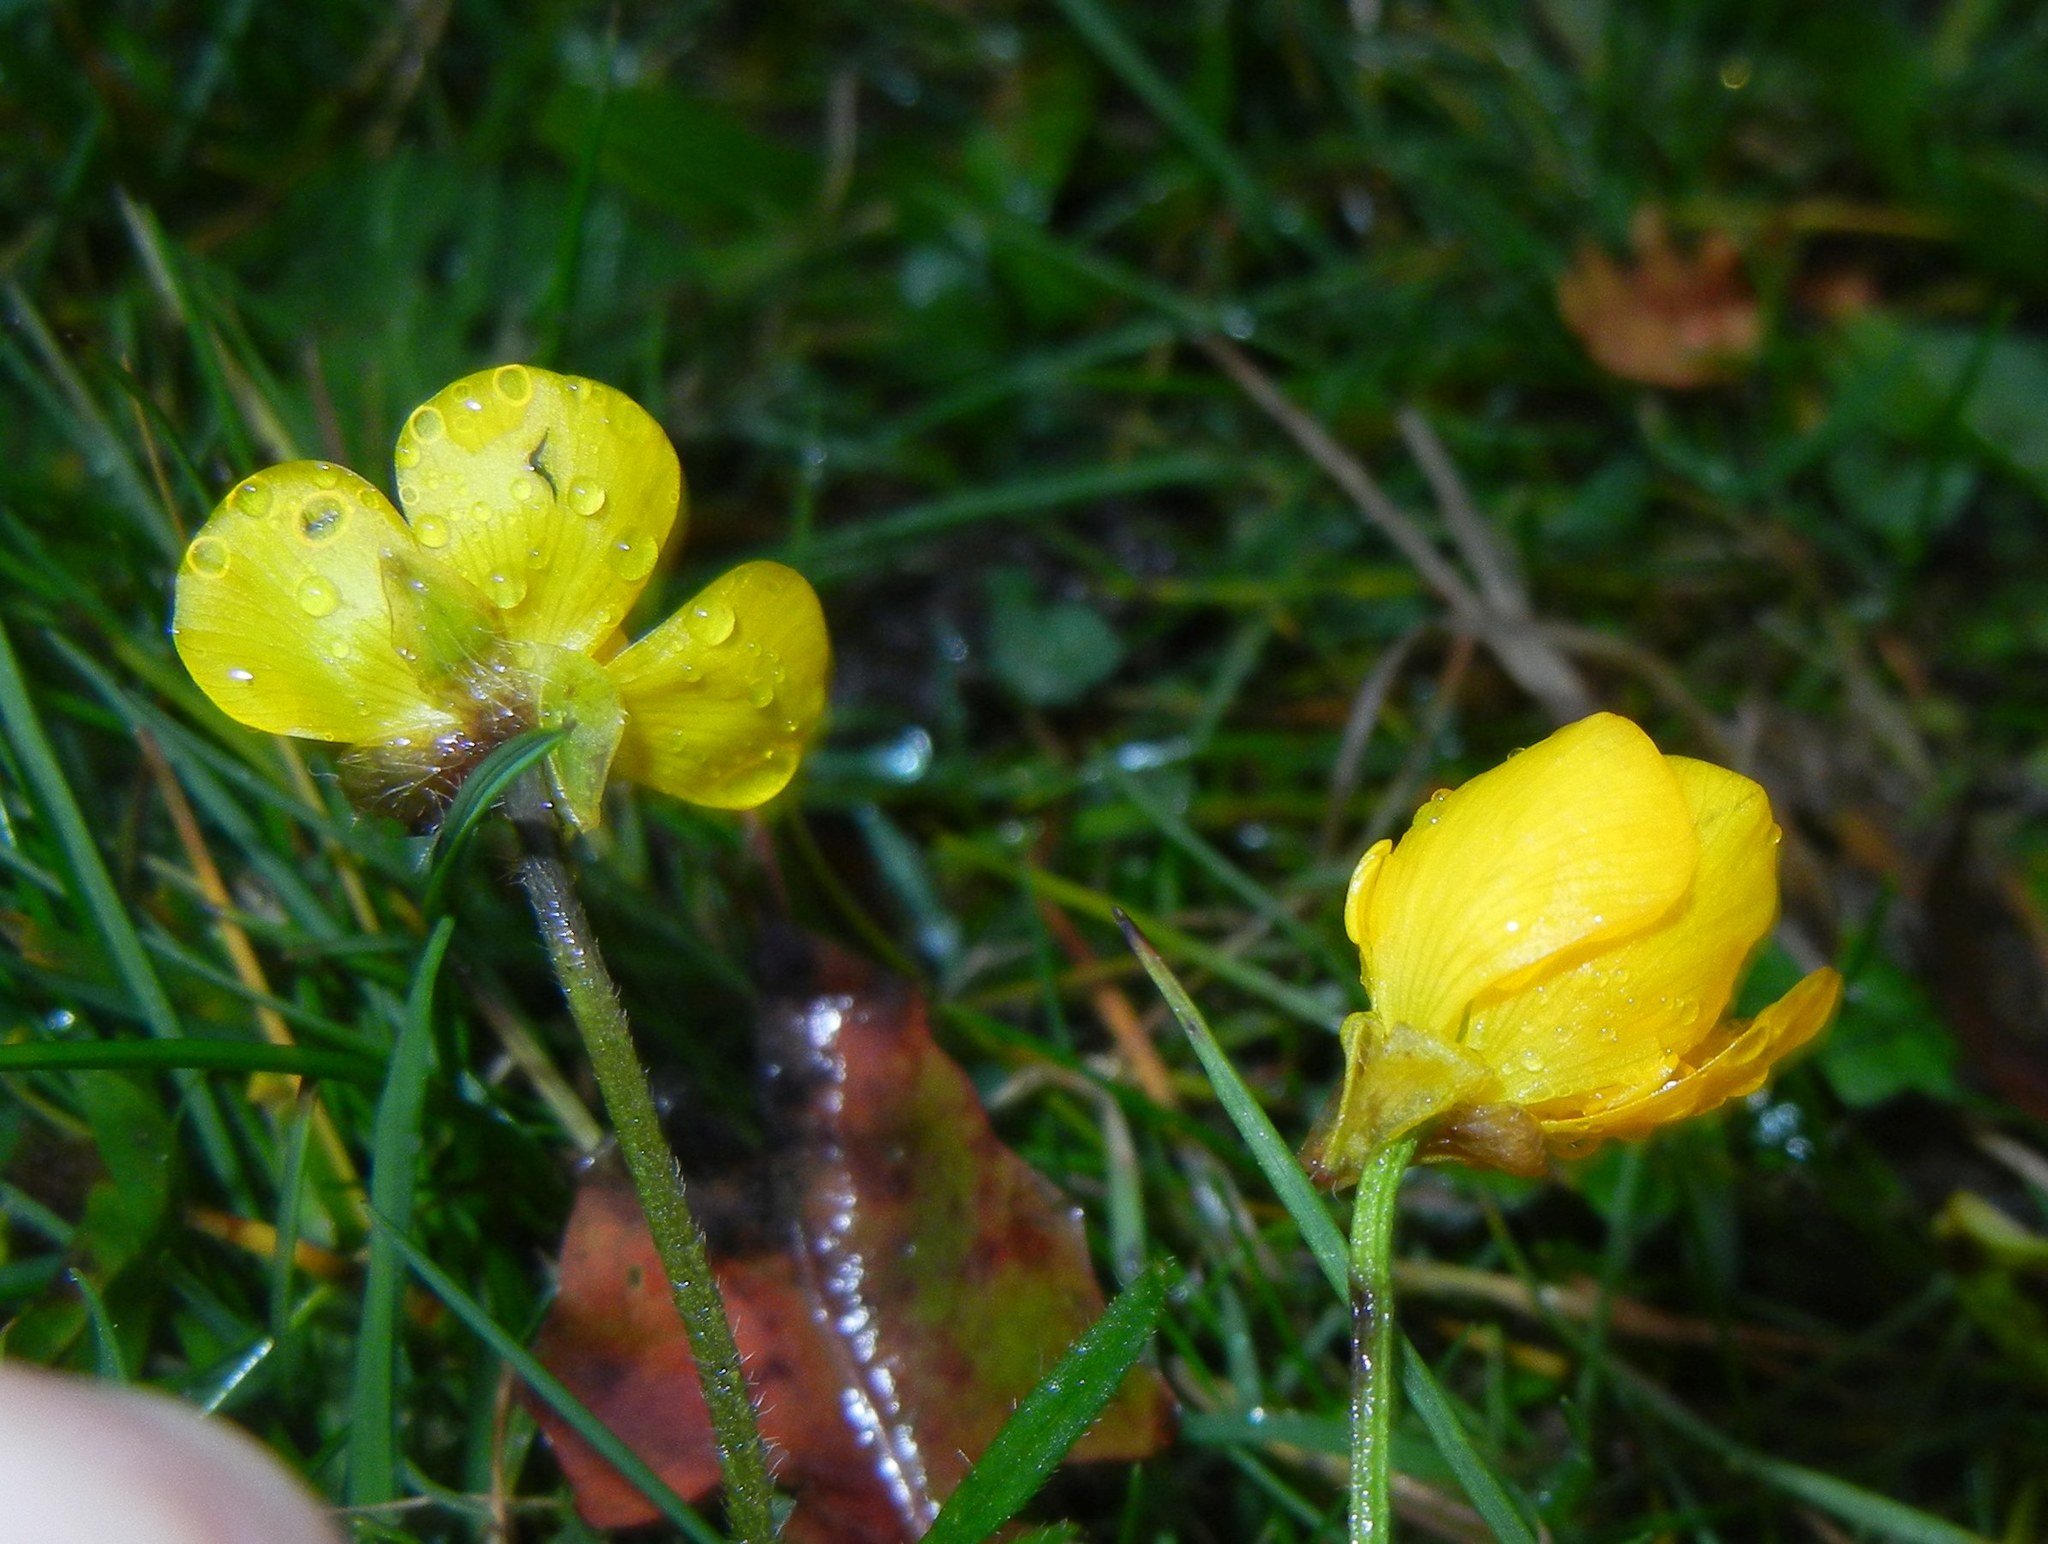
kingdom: Plantae
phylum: Tracheophyta
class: Magnoliopsida
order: Ranunculales
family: Ranunculaceae
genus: Ranunculus
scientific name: Ranunculus bulbosus
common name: Bulbous buttercup
